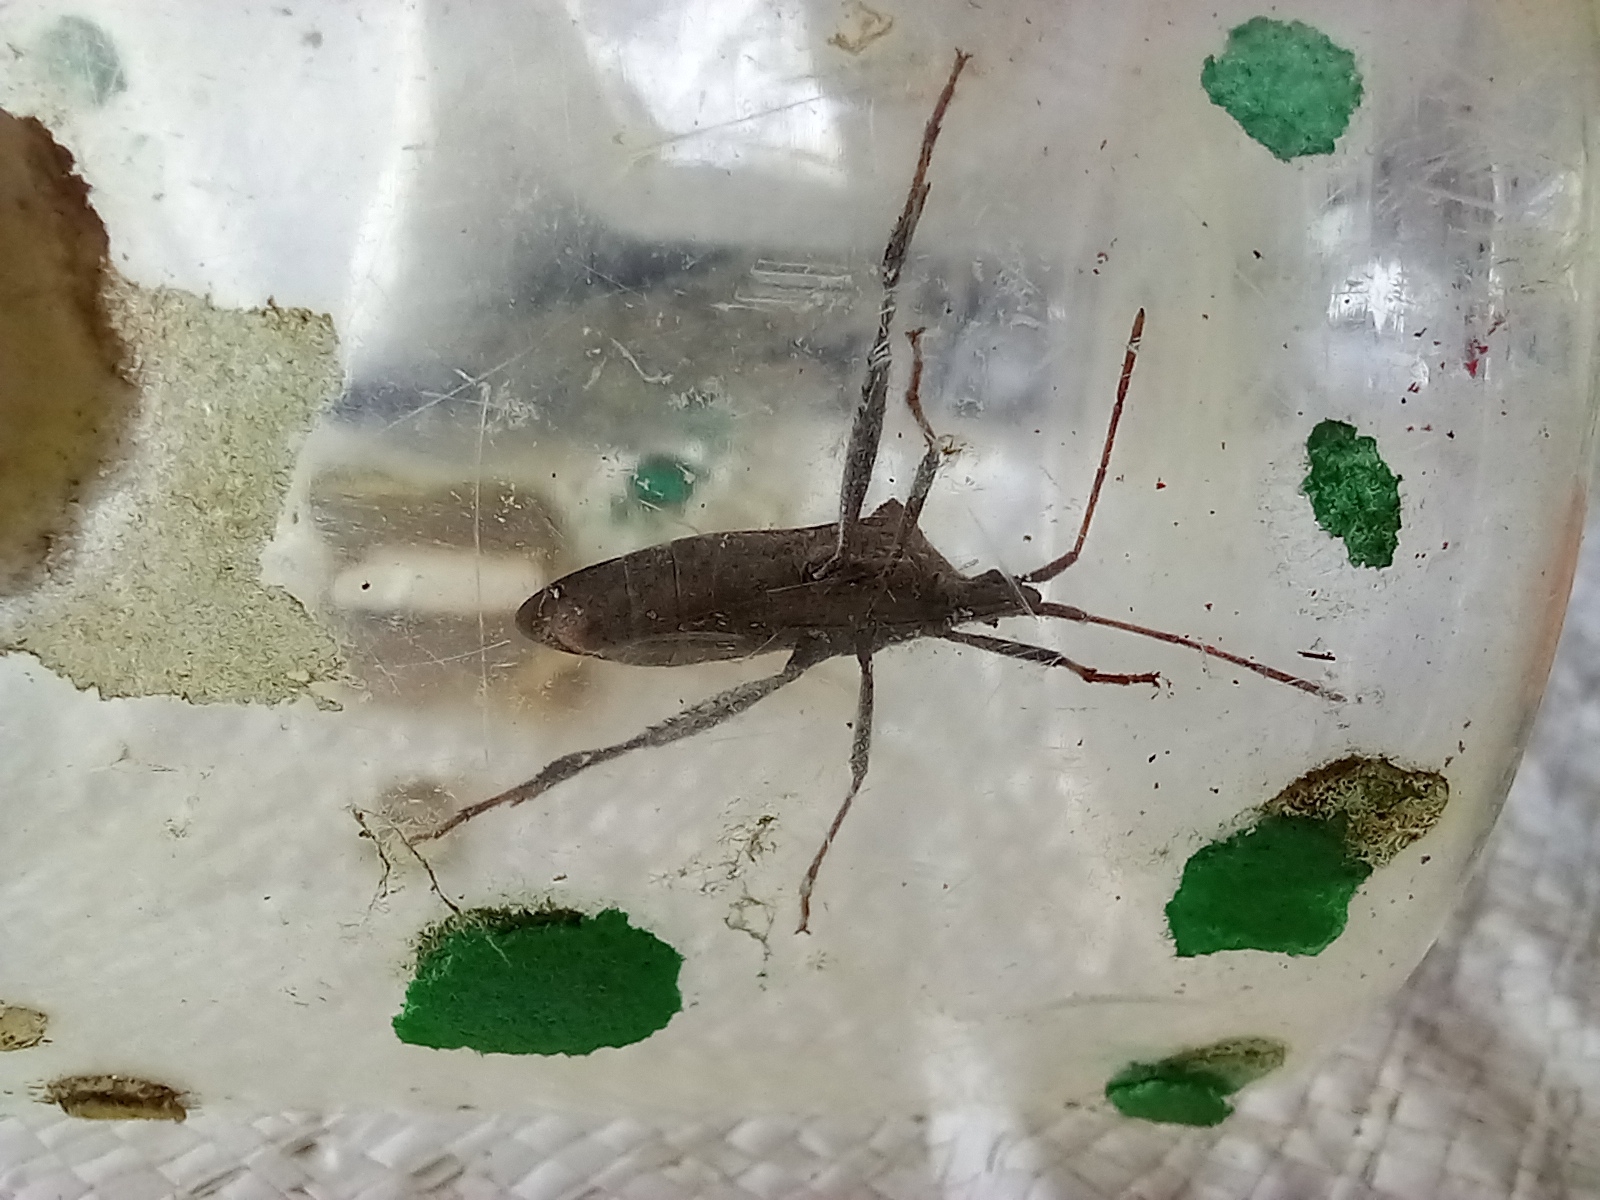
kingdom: Animalia
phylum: Arthropoda
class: Insecta
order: Hemiptera
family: Coreidae
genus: Leptoglossus
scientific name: Leptoglossus phyllopus
